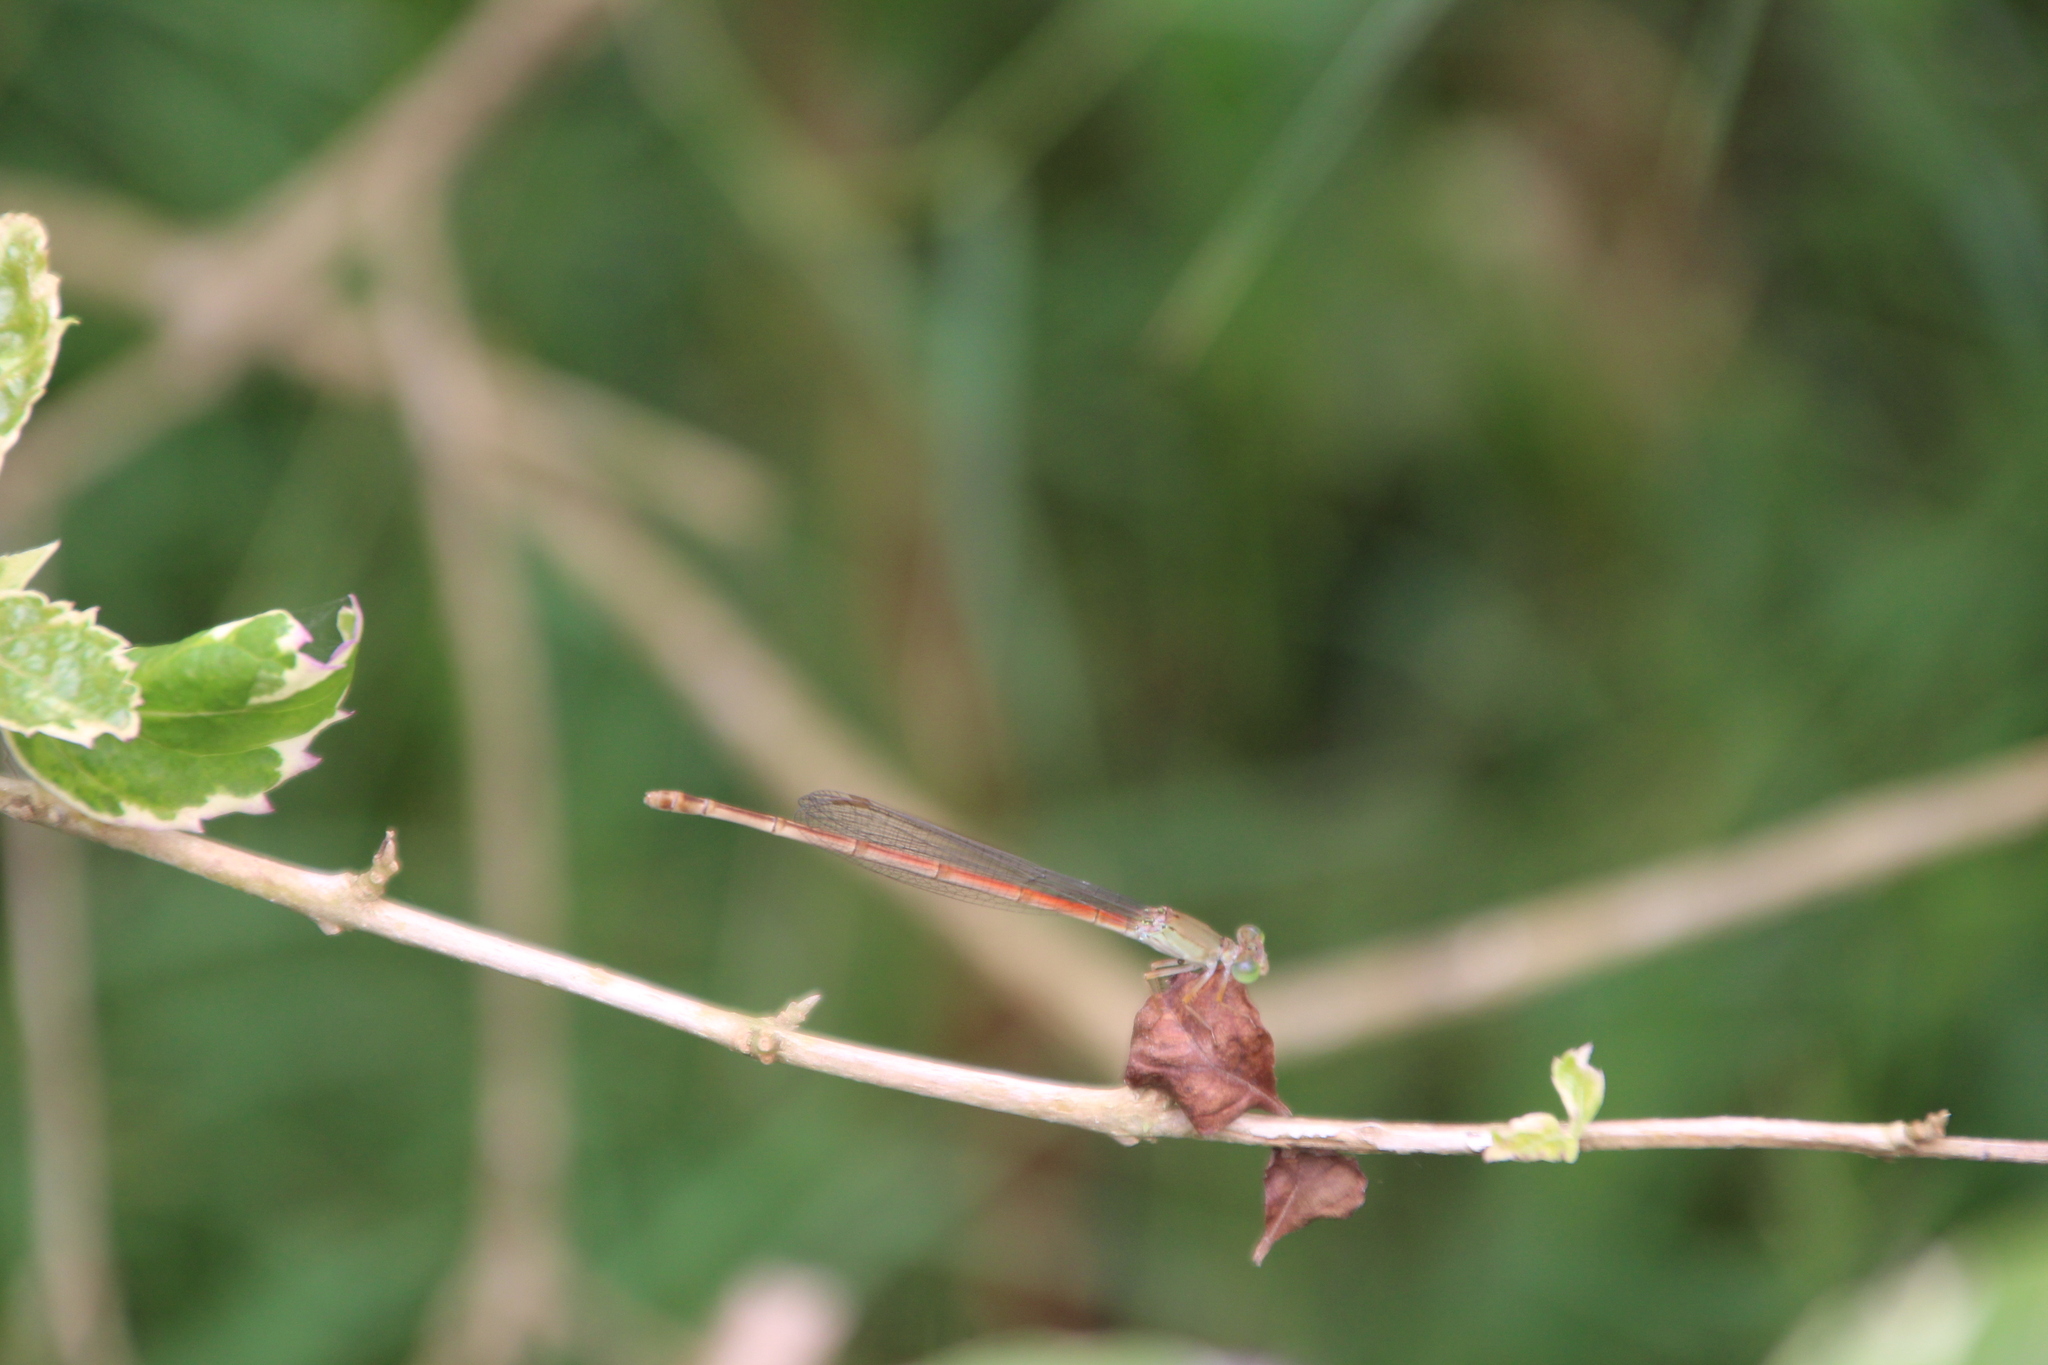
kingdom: Animalia
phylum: Arthropoda
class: Insecta
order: Odonata
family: Coenagrionidae
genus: Ceriagrion
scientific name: Ceriagrion glabrum
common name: Common pond damsel
